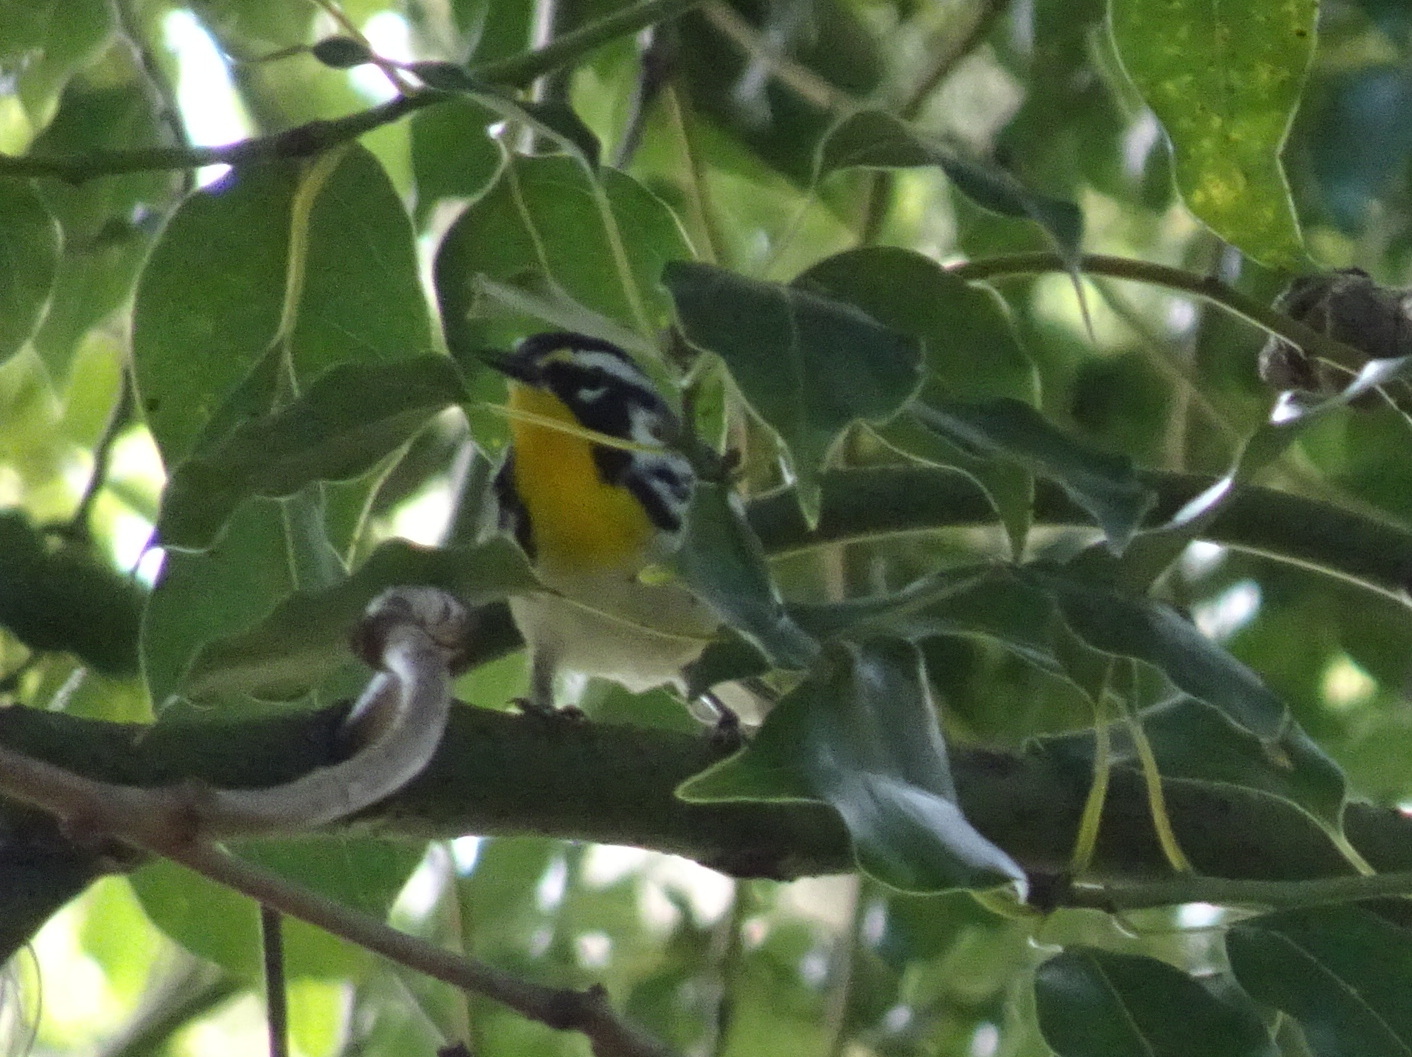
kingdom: Animalia
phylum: Chordata
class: Aves
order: Passeriformes
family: Parulidae
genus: Setophaga
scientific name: Setophaga dominica
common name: Yellow-throated warbler
